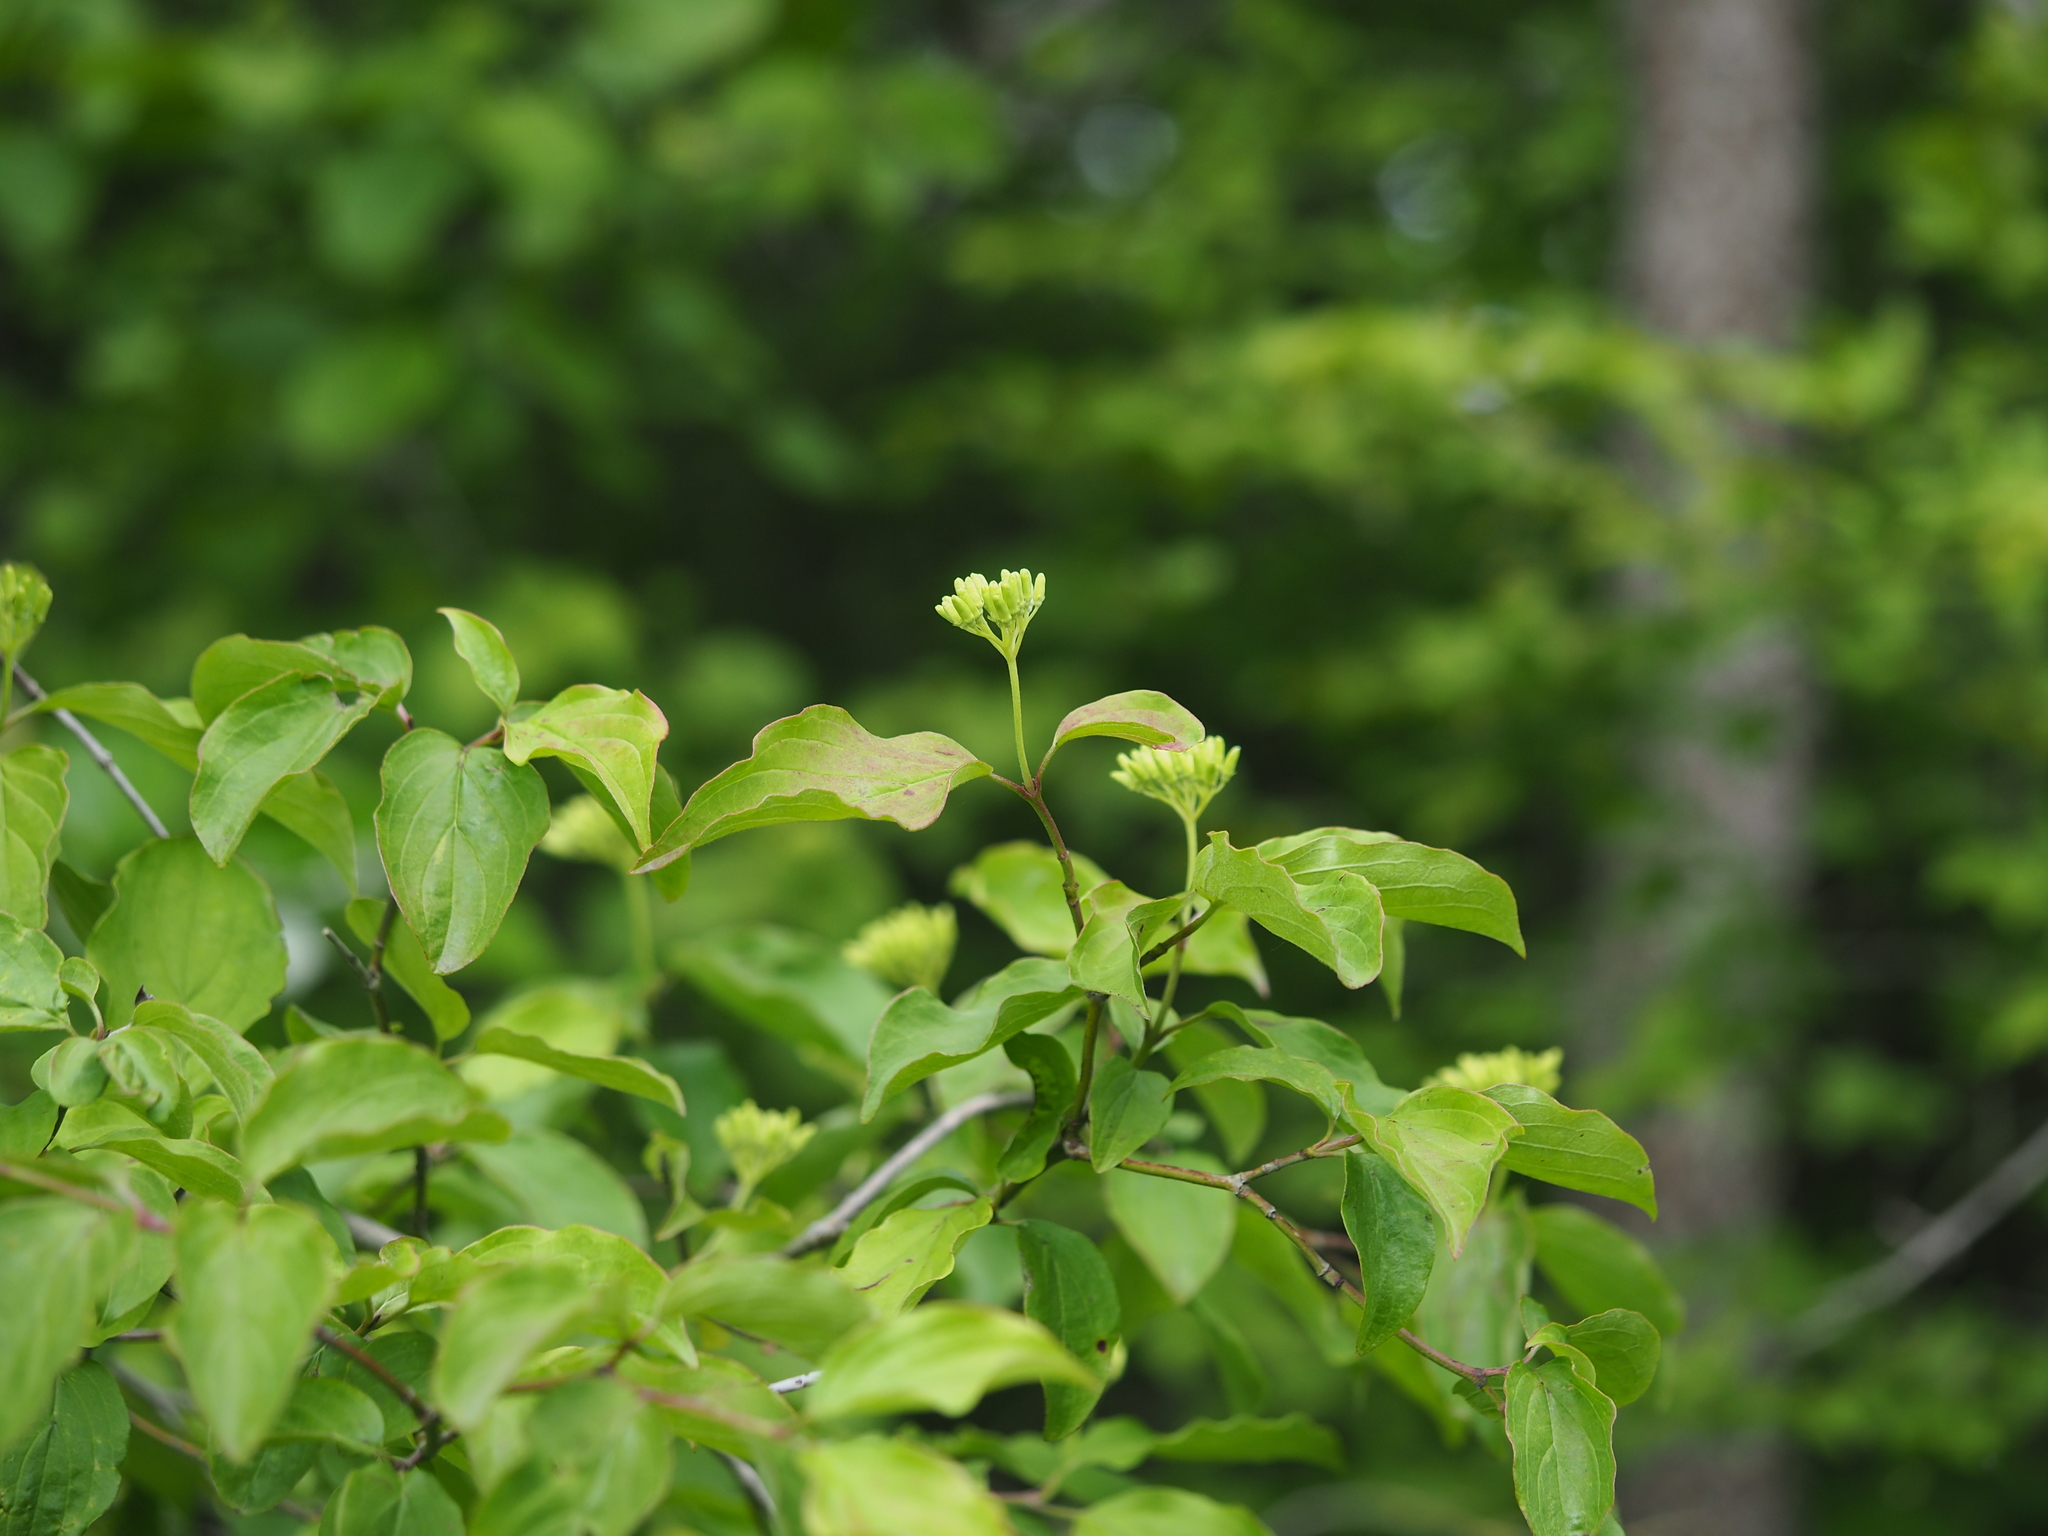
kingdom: Plantae
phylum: Tracheophyta
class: Magnoliopsida
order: Cornales
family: Cornaceae
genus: Cornus
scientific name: Cornus sanguinea
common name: Dogwood
